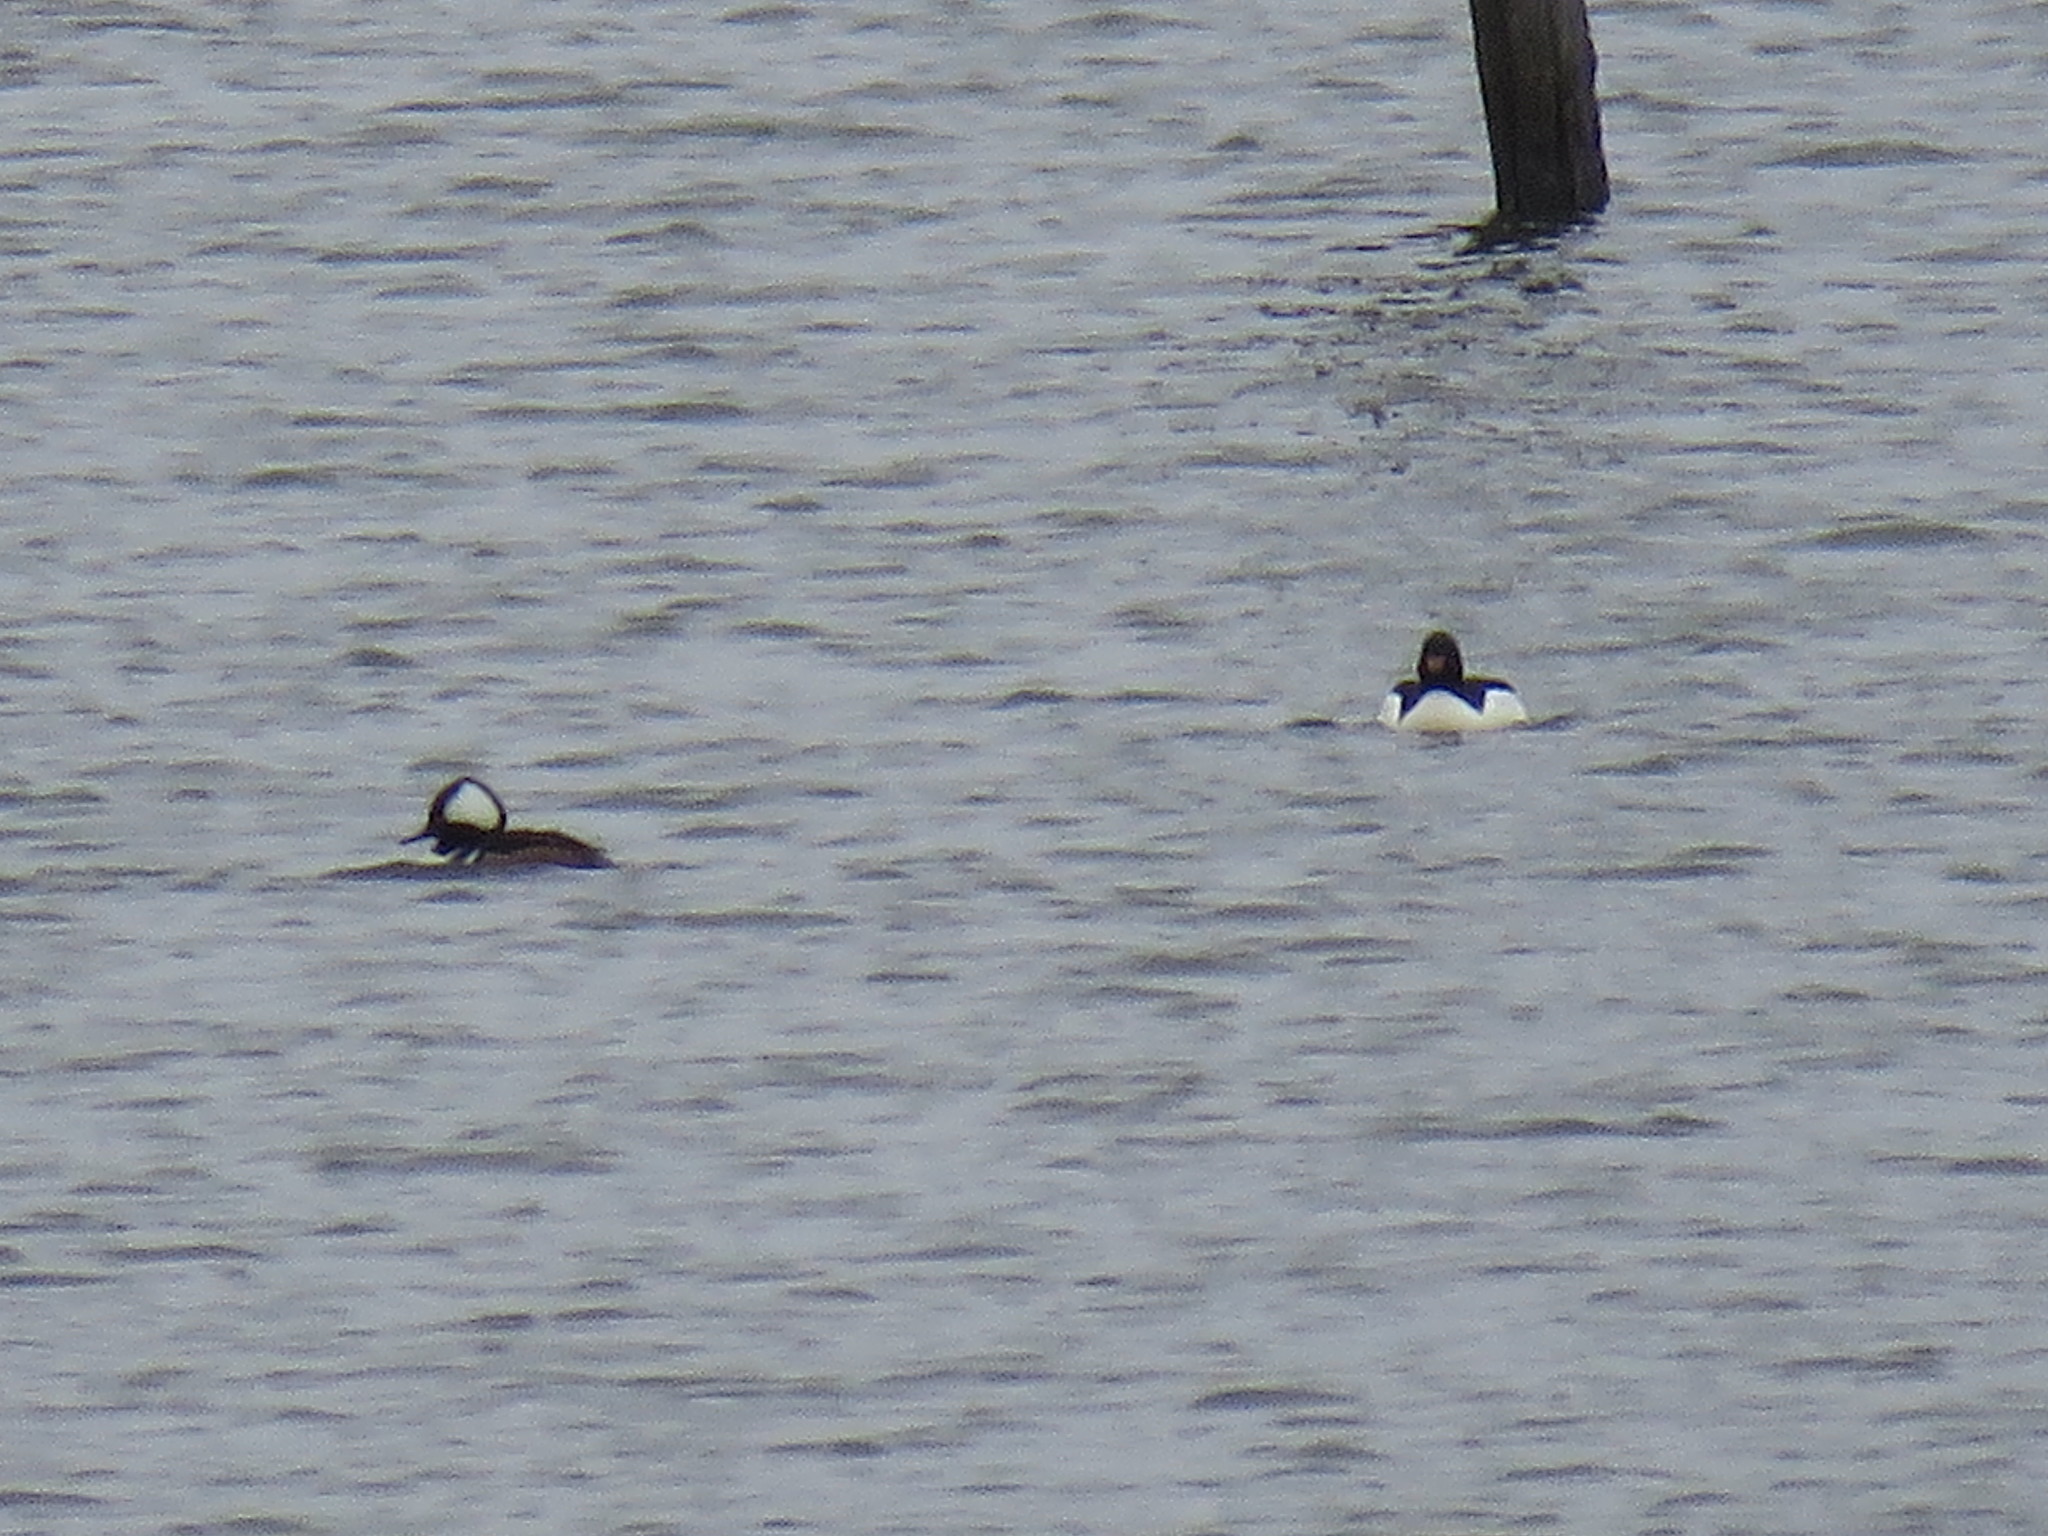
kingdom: Animalia
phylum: Chordata
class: Aves
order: Anseriformes
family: Anatidae
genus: Mergus
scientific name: Mergus merganser
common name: Common merganser
